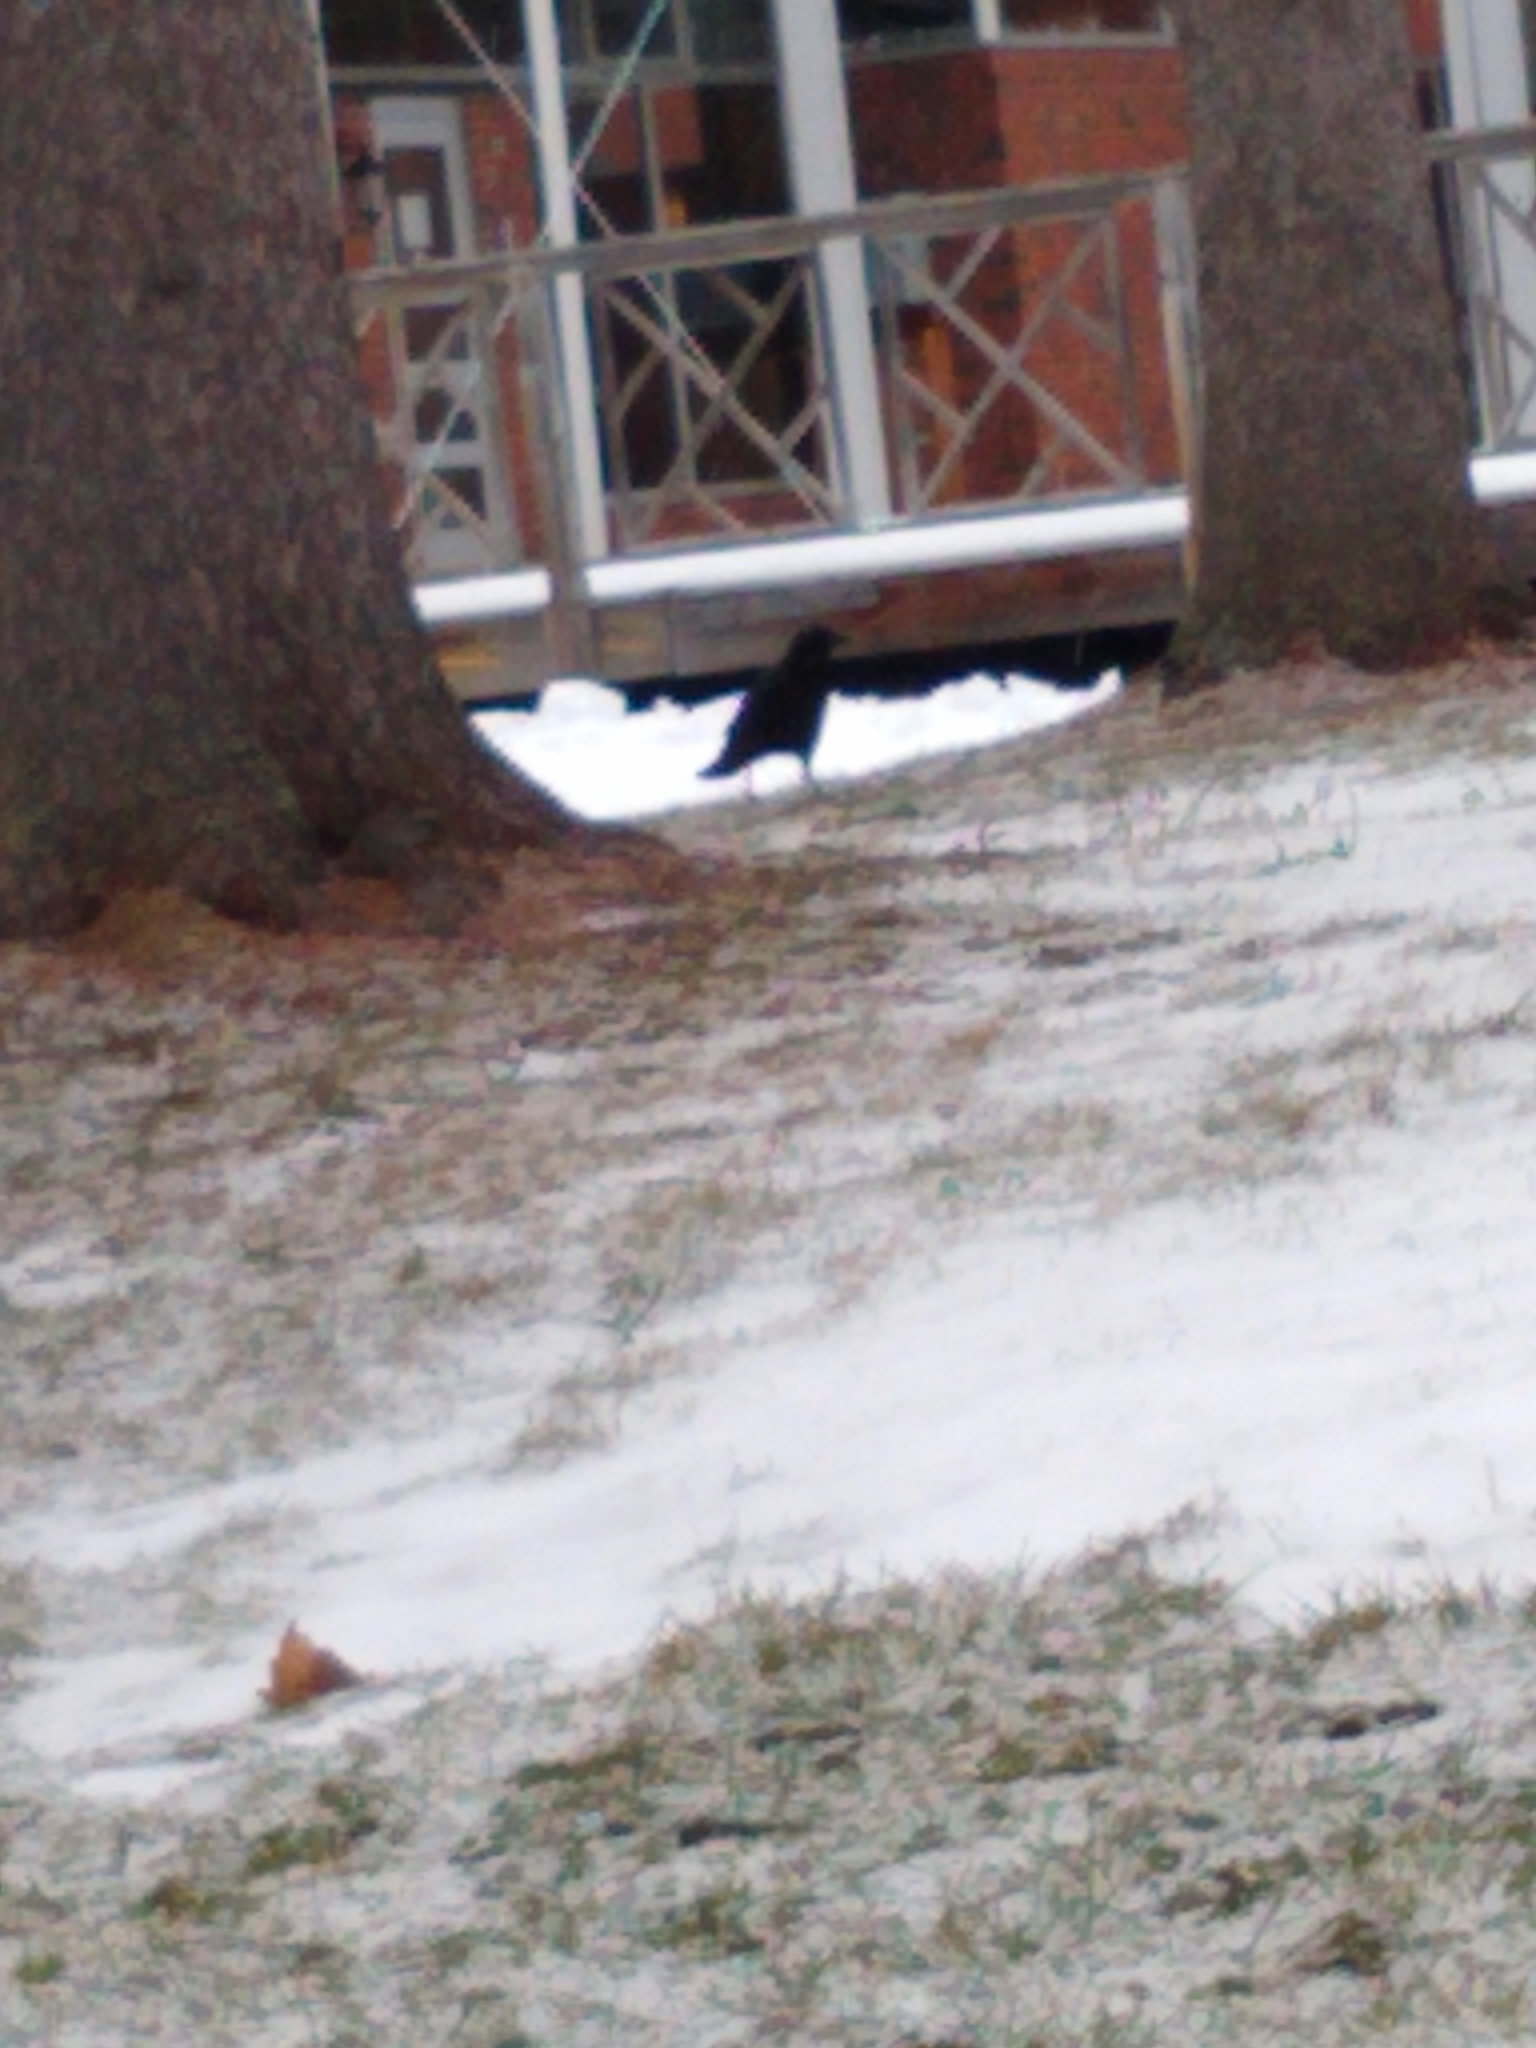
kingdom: Animalia
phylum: Chordata
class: Aves
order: Passeriformes
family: Corvidae
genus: Corvus
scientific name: Corvus brachyrhynchos
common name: American crow
